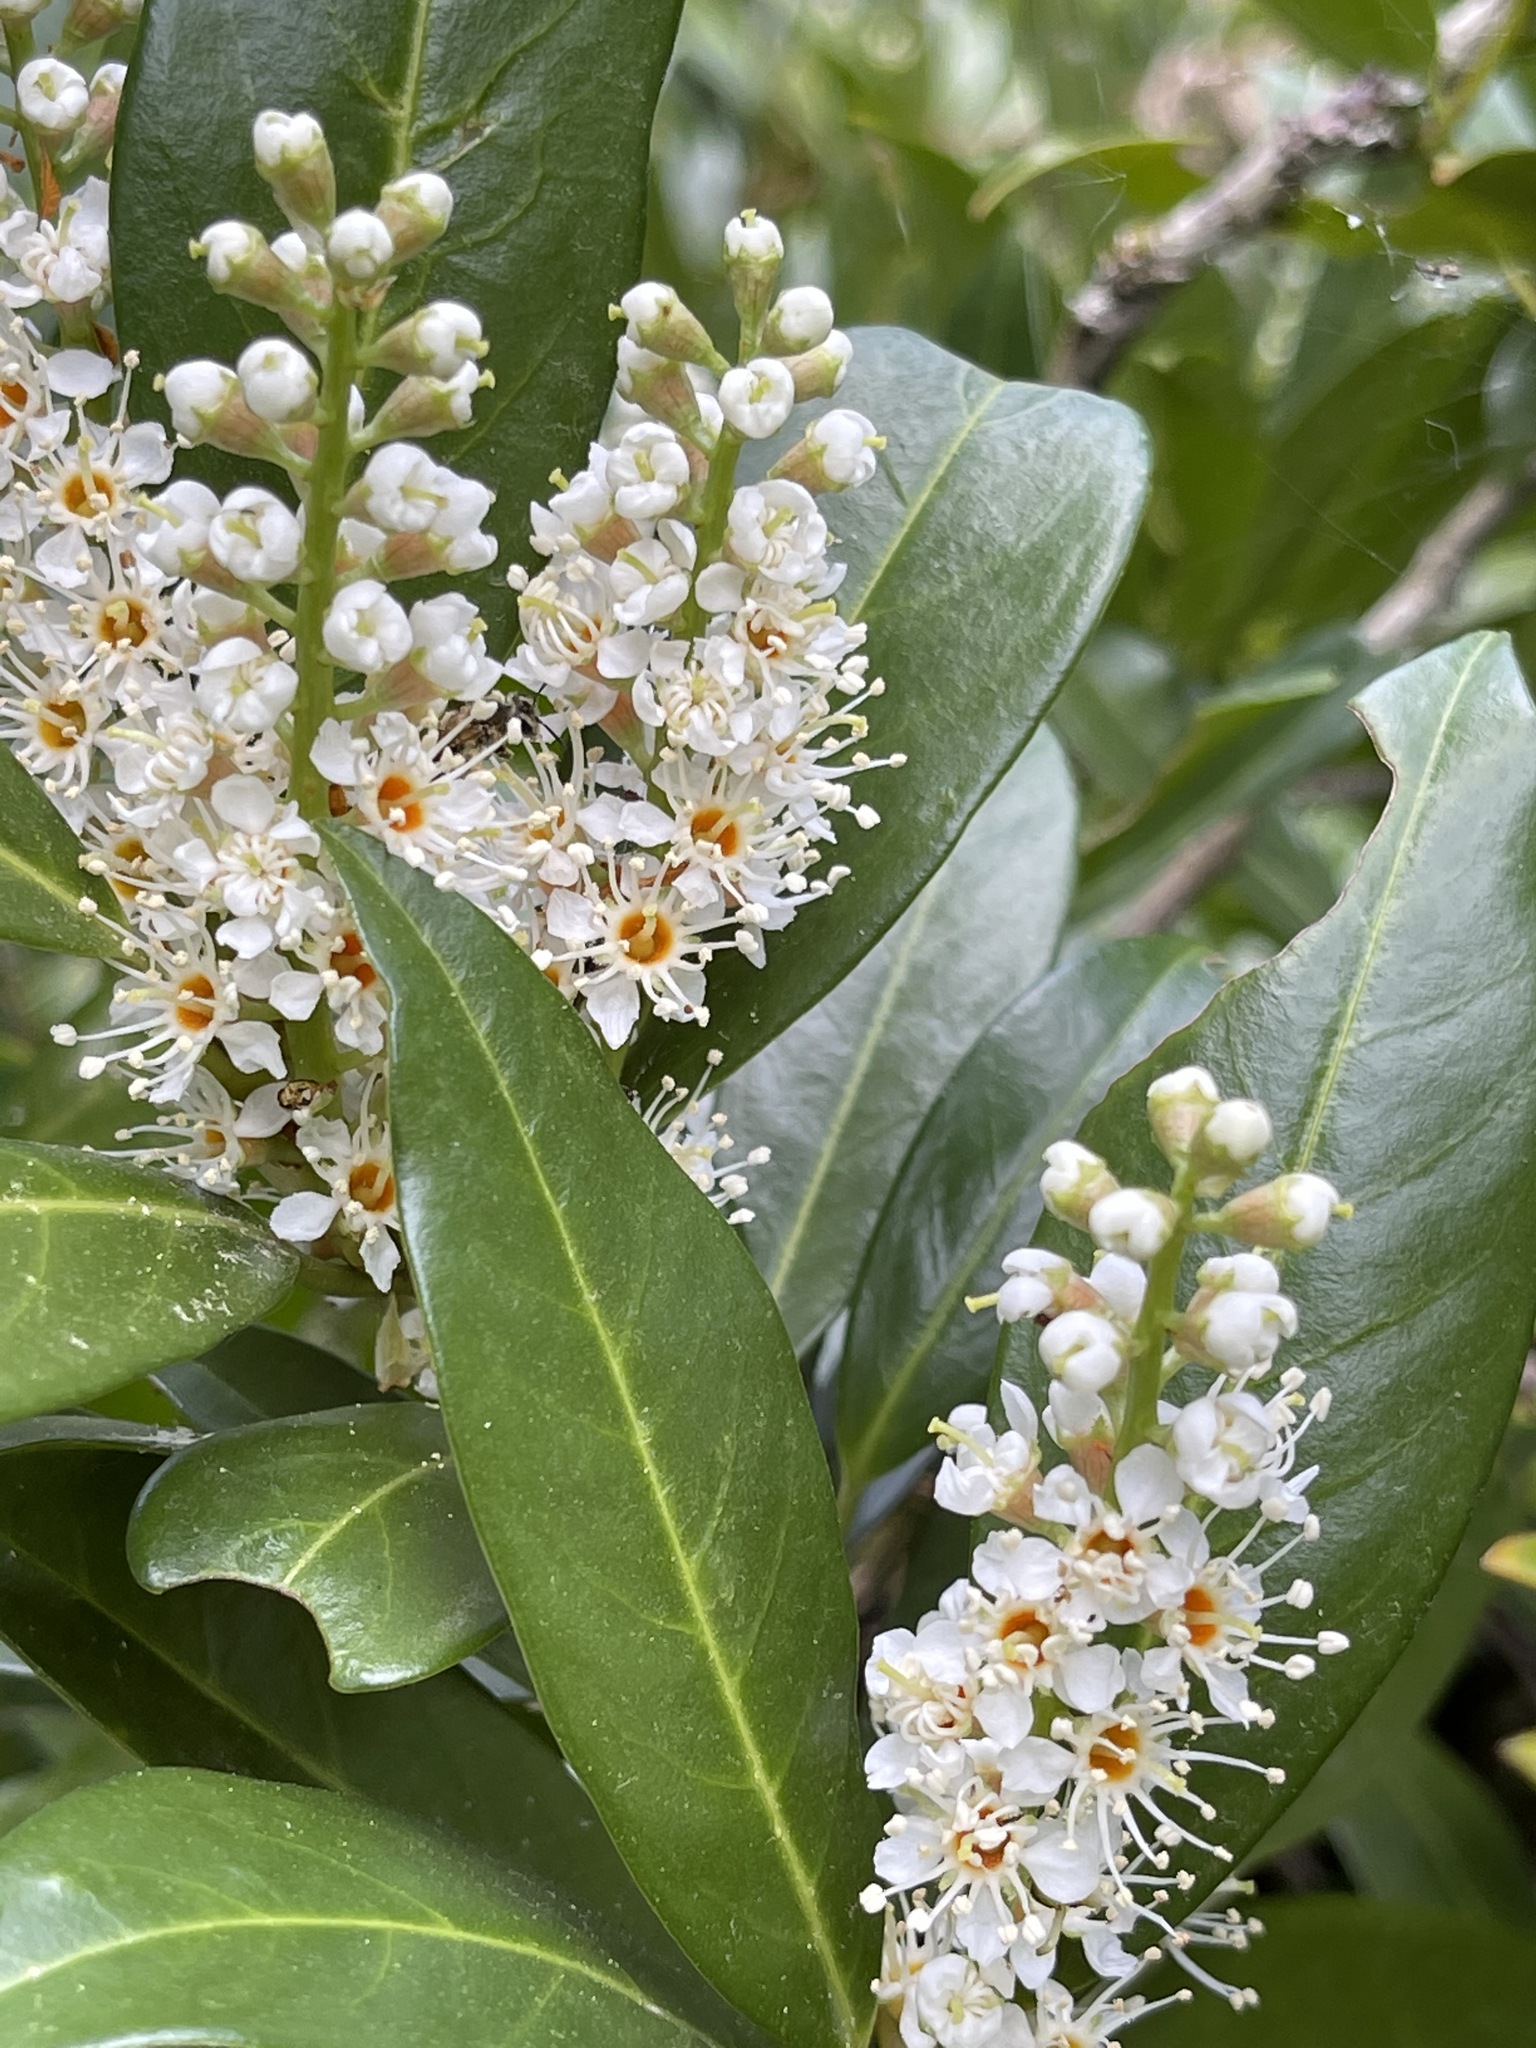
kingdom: Plantae
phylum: Tracheophyta
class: Magnoliopsida
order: Rosales
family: Rosaceae
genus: Prunus
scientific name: Prunus laurocerasus
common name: Cherry laurel
